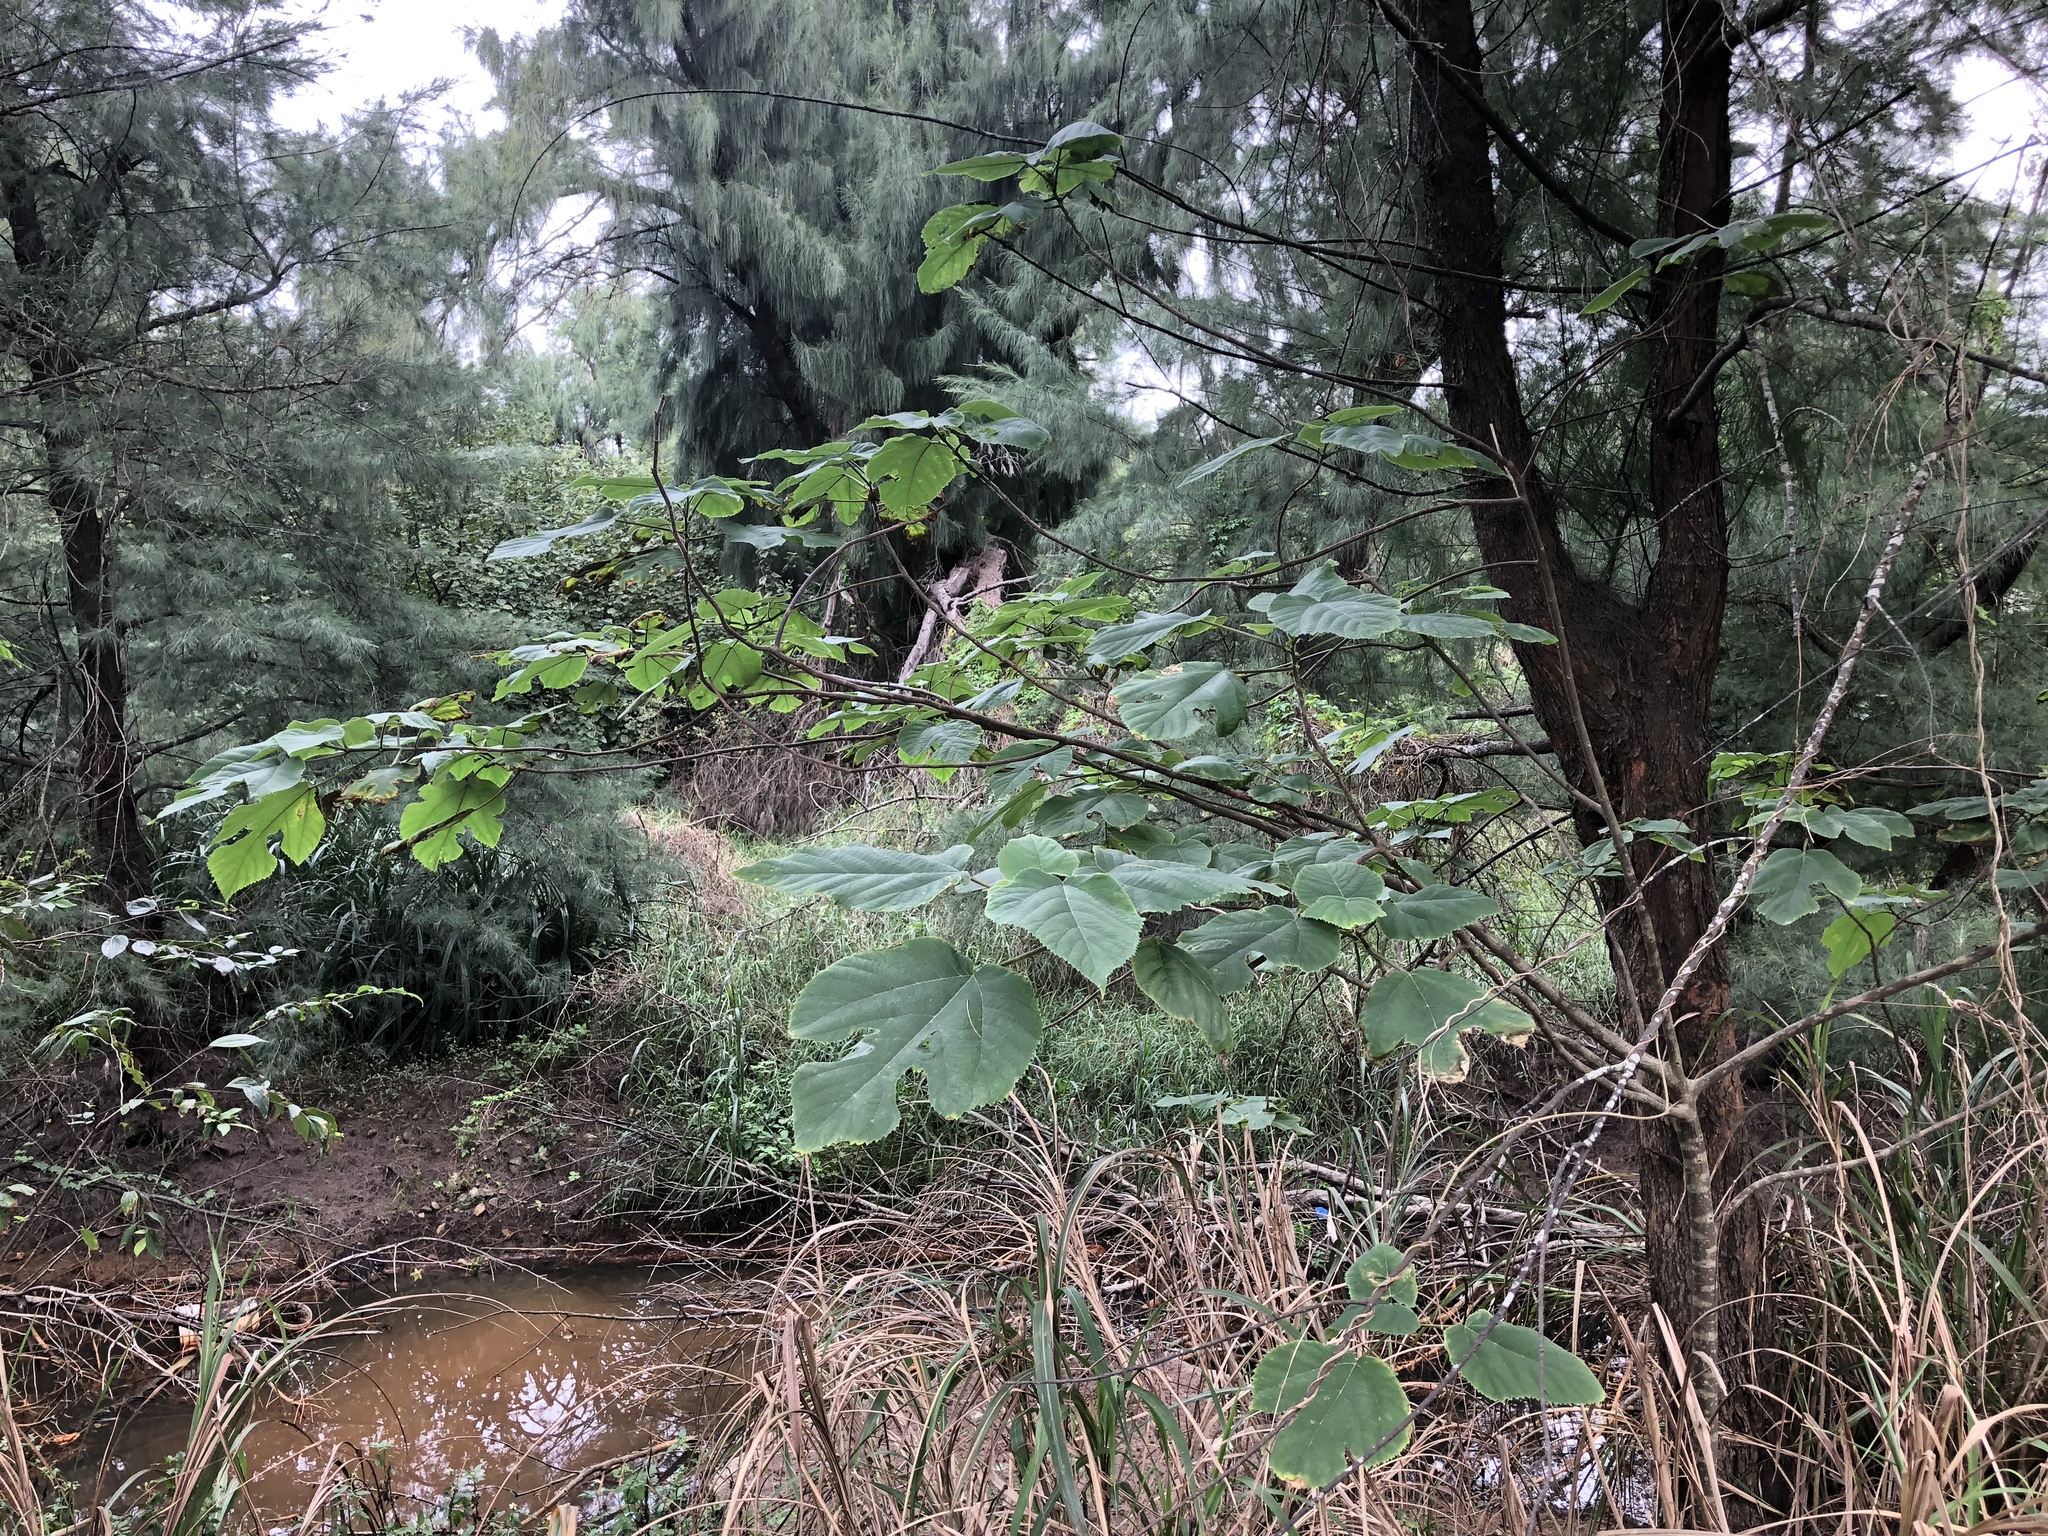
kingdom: Plantae
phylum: Tracheophyta
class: Magnoliopsida
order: Rosales
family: Moraceae
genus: Broussonetia
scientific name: Broussonetia papyrifera
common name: Paper mulberry
